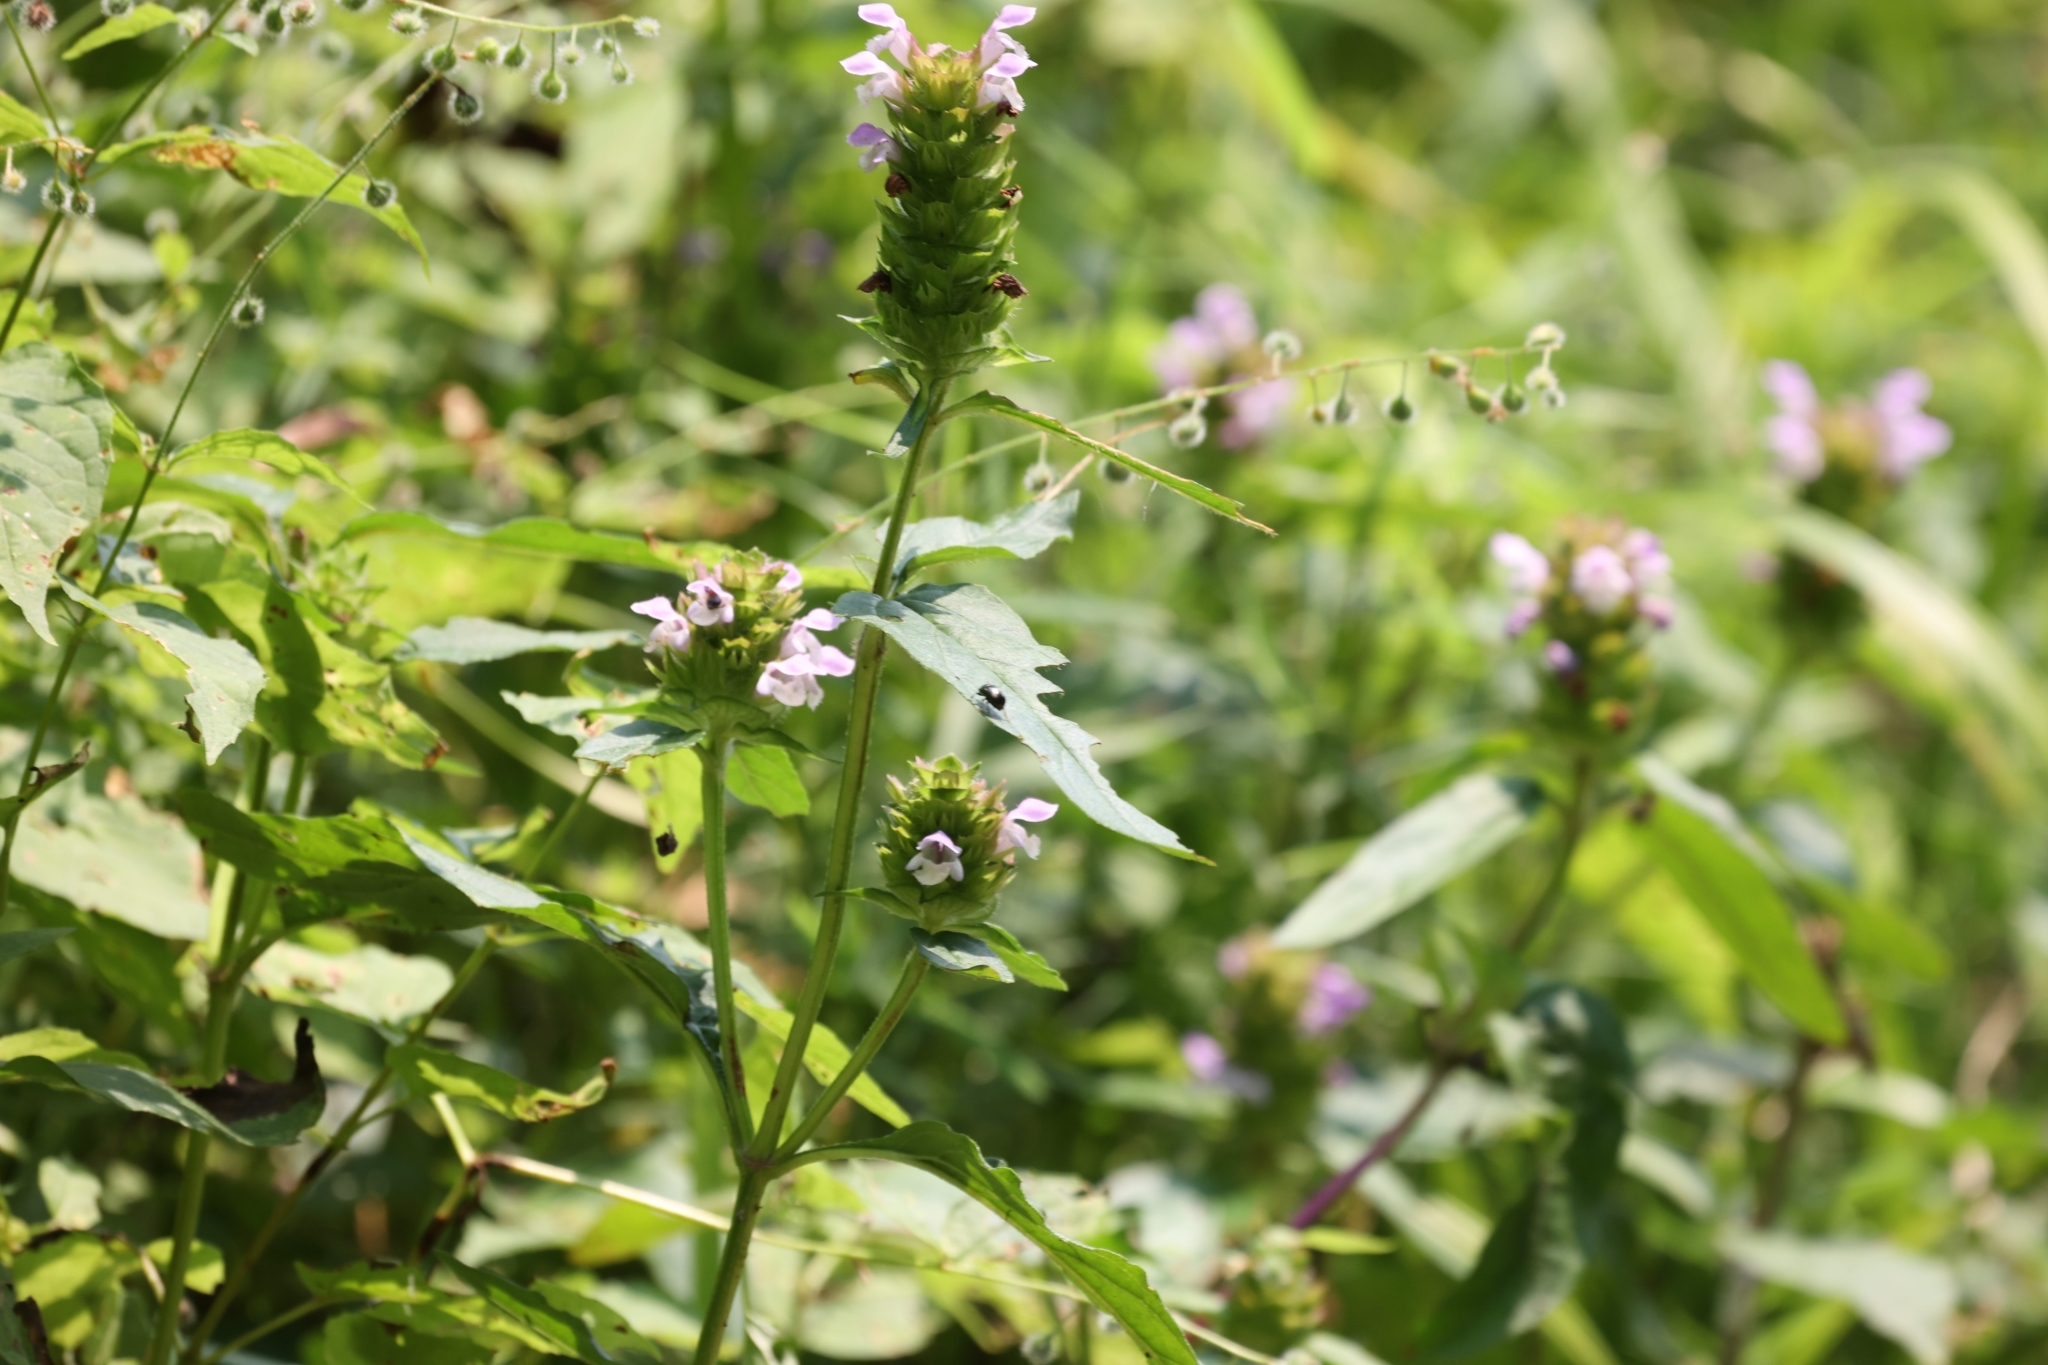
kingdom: Plantae
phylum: Tracheophyta
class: Magnoliopsida
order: Lamiales
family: Lamiaceae
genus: Prunella
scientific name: Prunella vulgaris
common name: Heal-all
